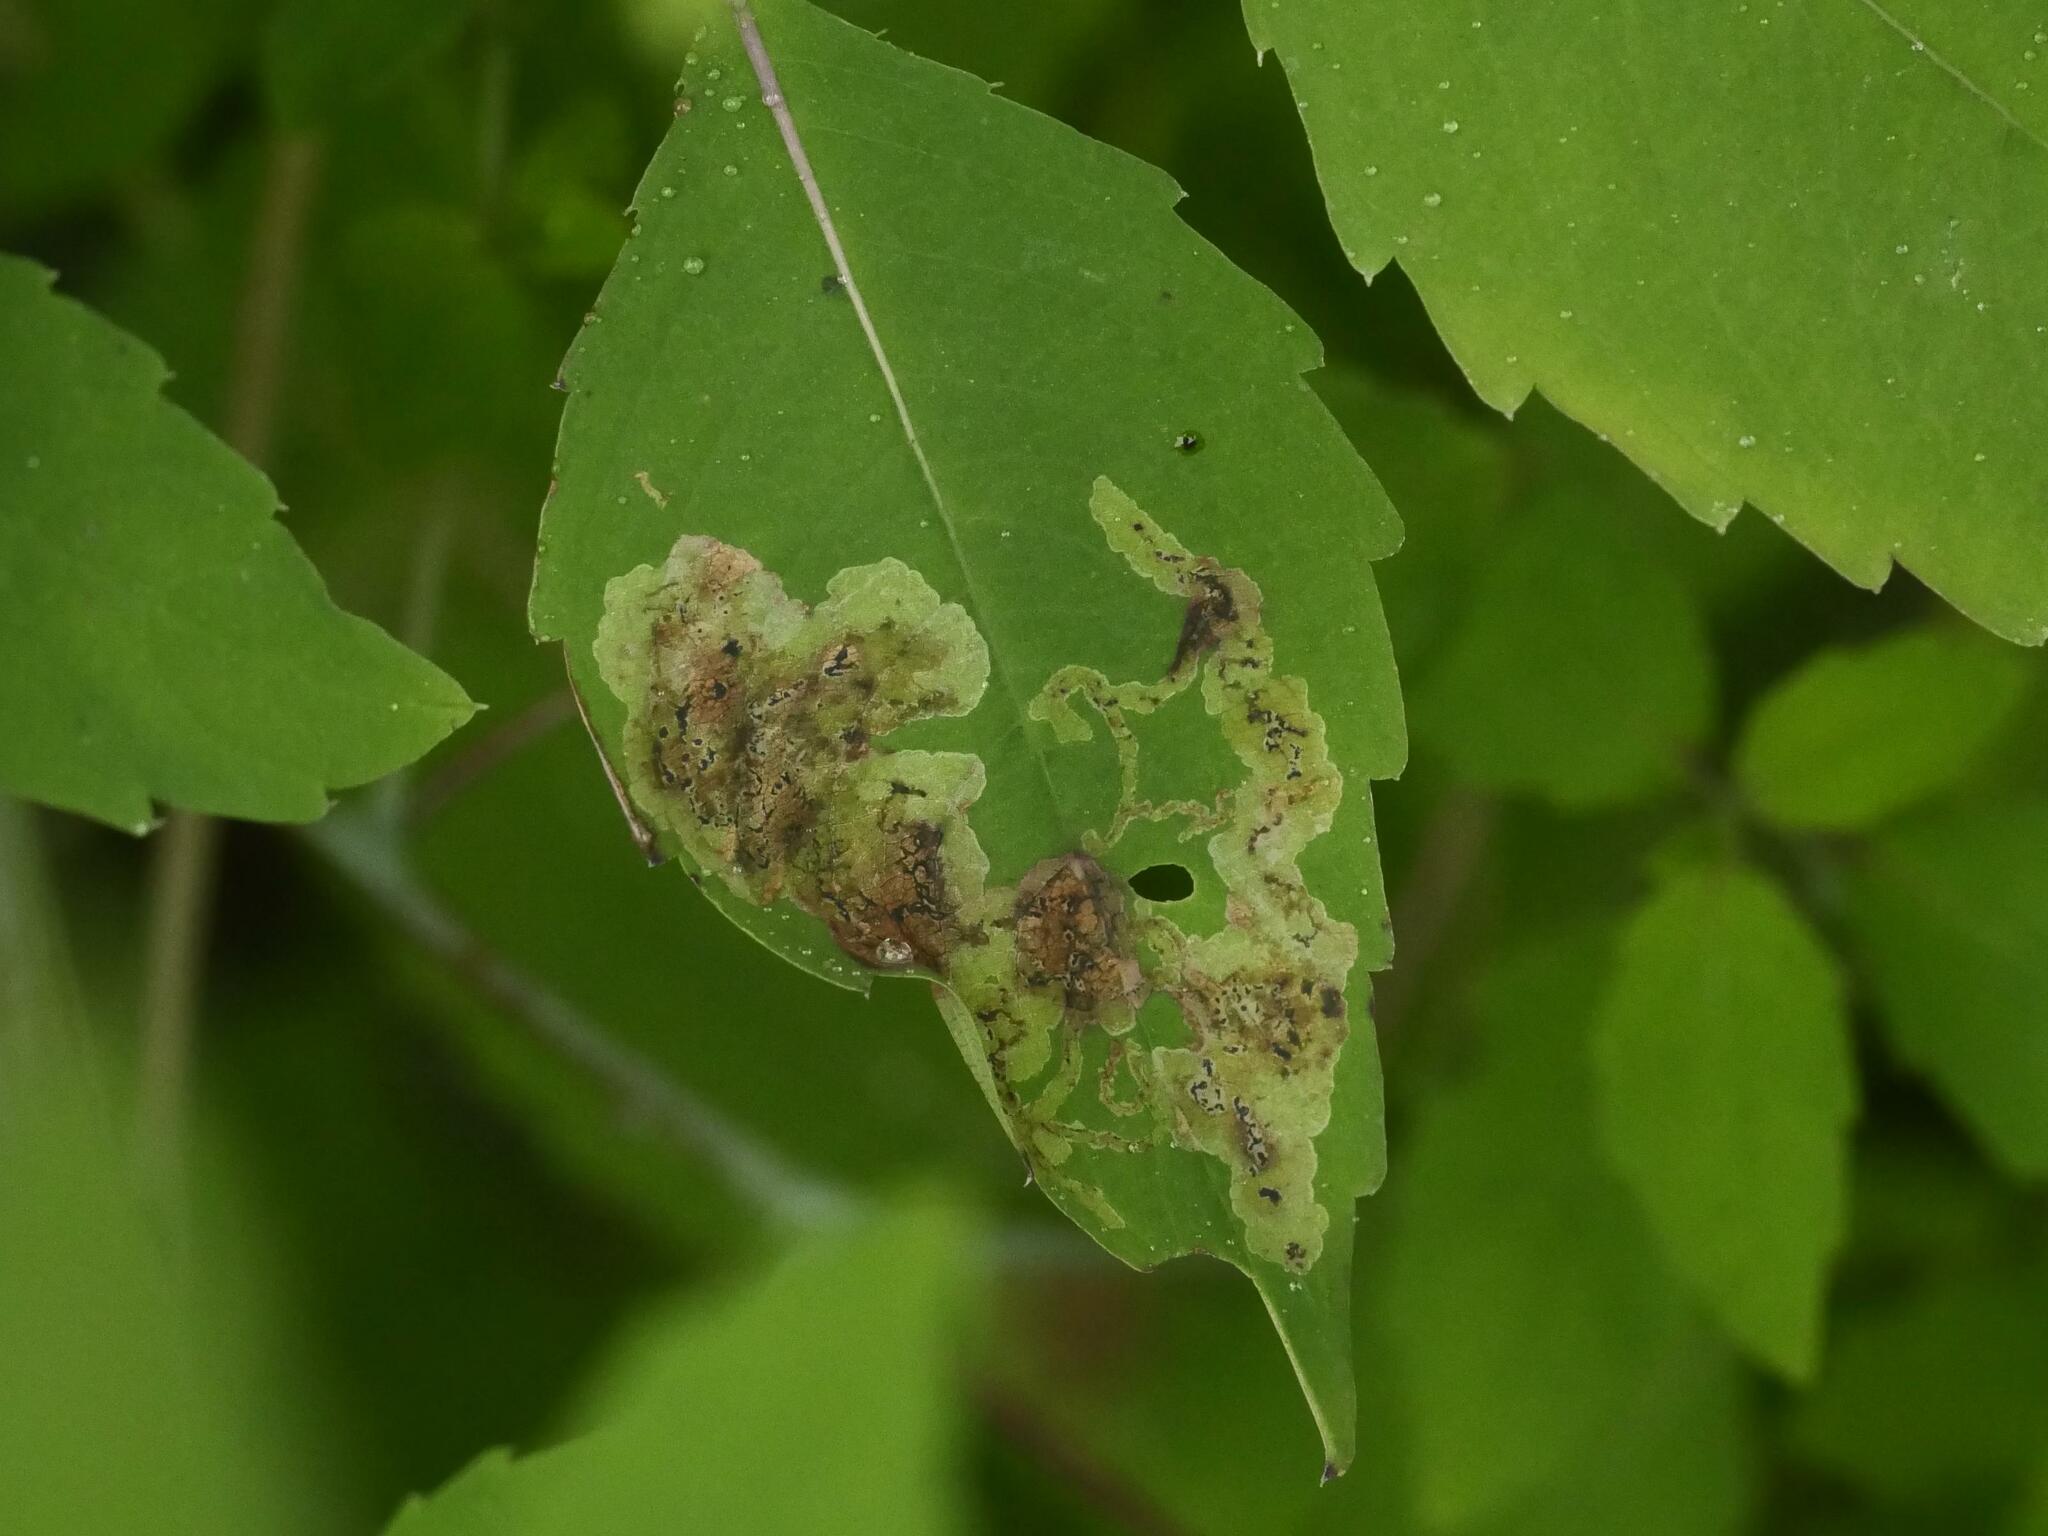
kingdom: Animalia
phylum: Arthropoda
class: Insecta
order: Diptera
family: Agromyzidae
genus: Phytoliriomyza
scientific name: Phytoliriomyza melampyga
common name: Jewelweed leaf-miner fly
